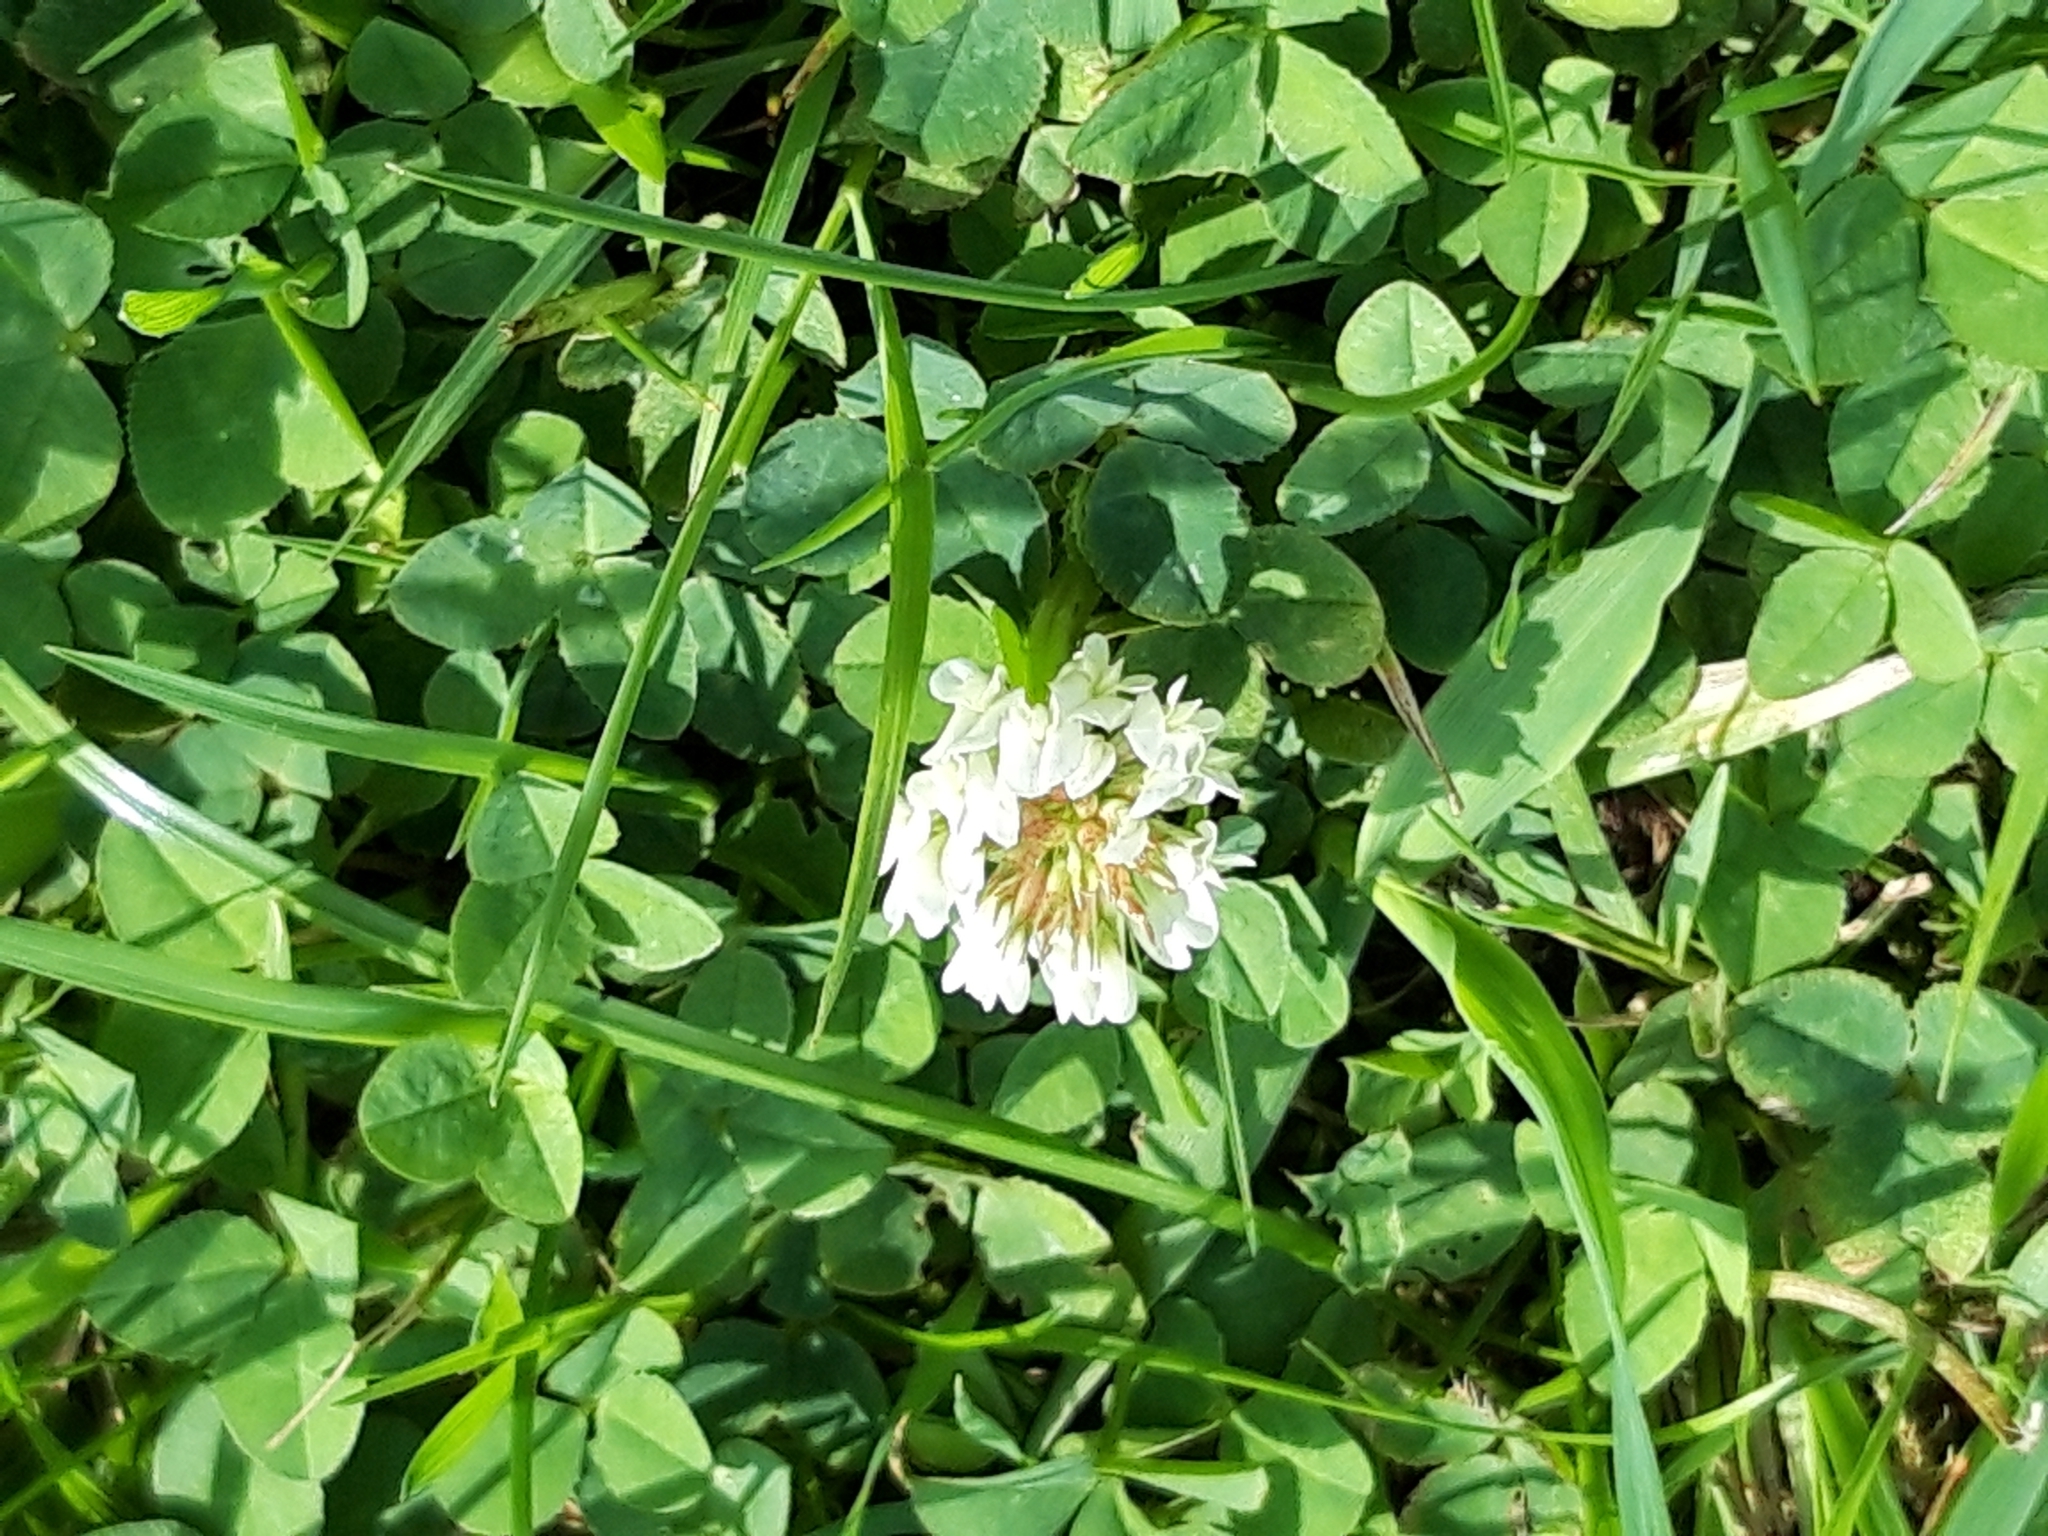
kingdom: Plantae
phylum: Tracheophyta
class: Magnoliopsida
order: Fabales
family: Fabaceae
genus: Trifolium
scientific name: Trifolium repens
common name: White clover
